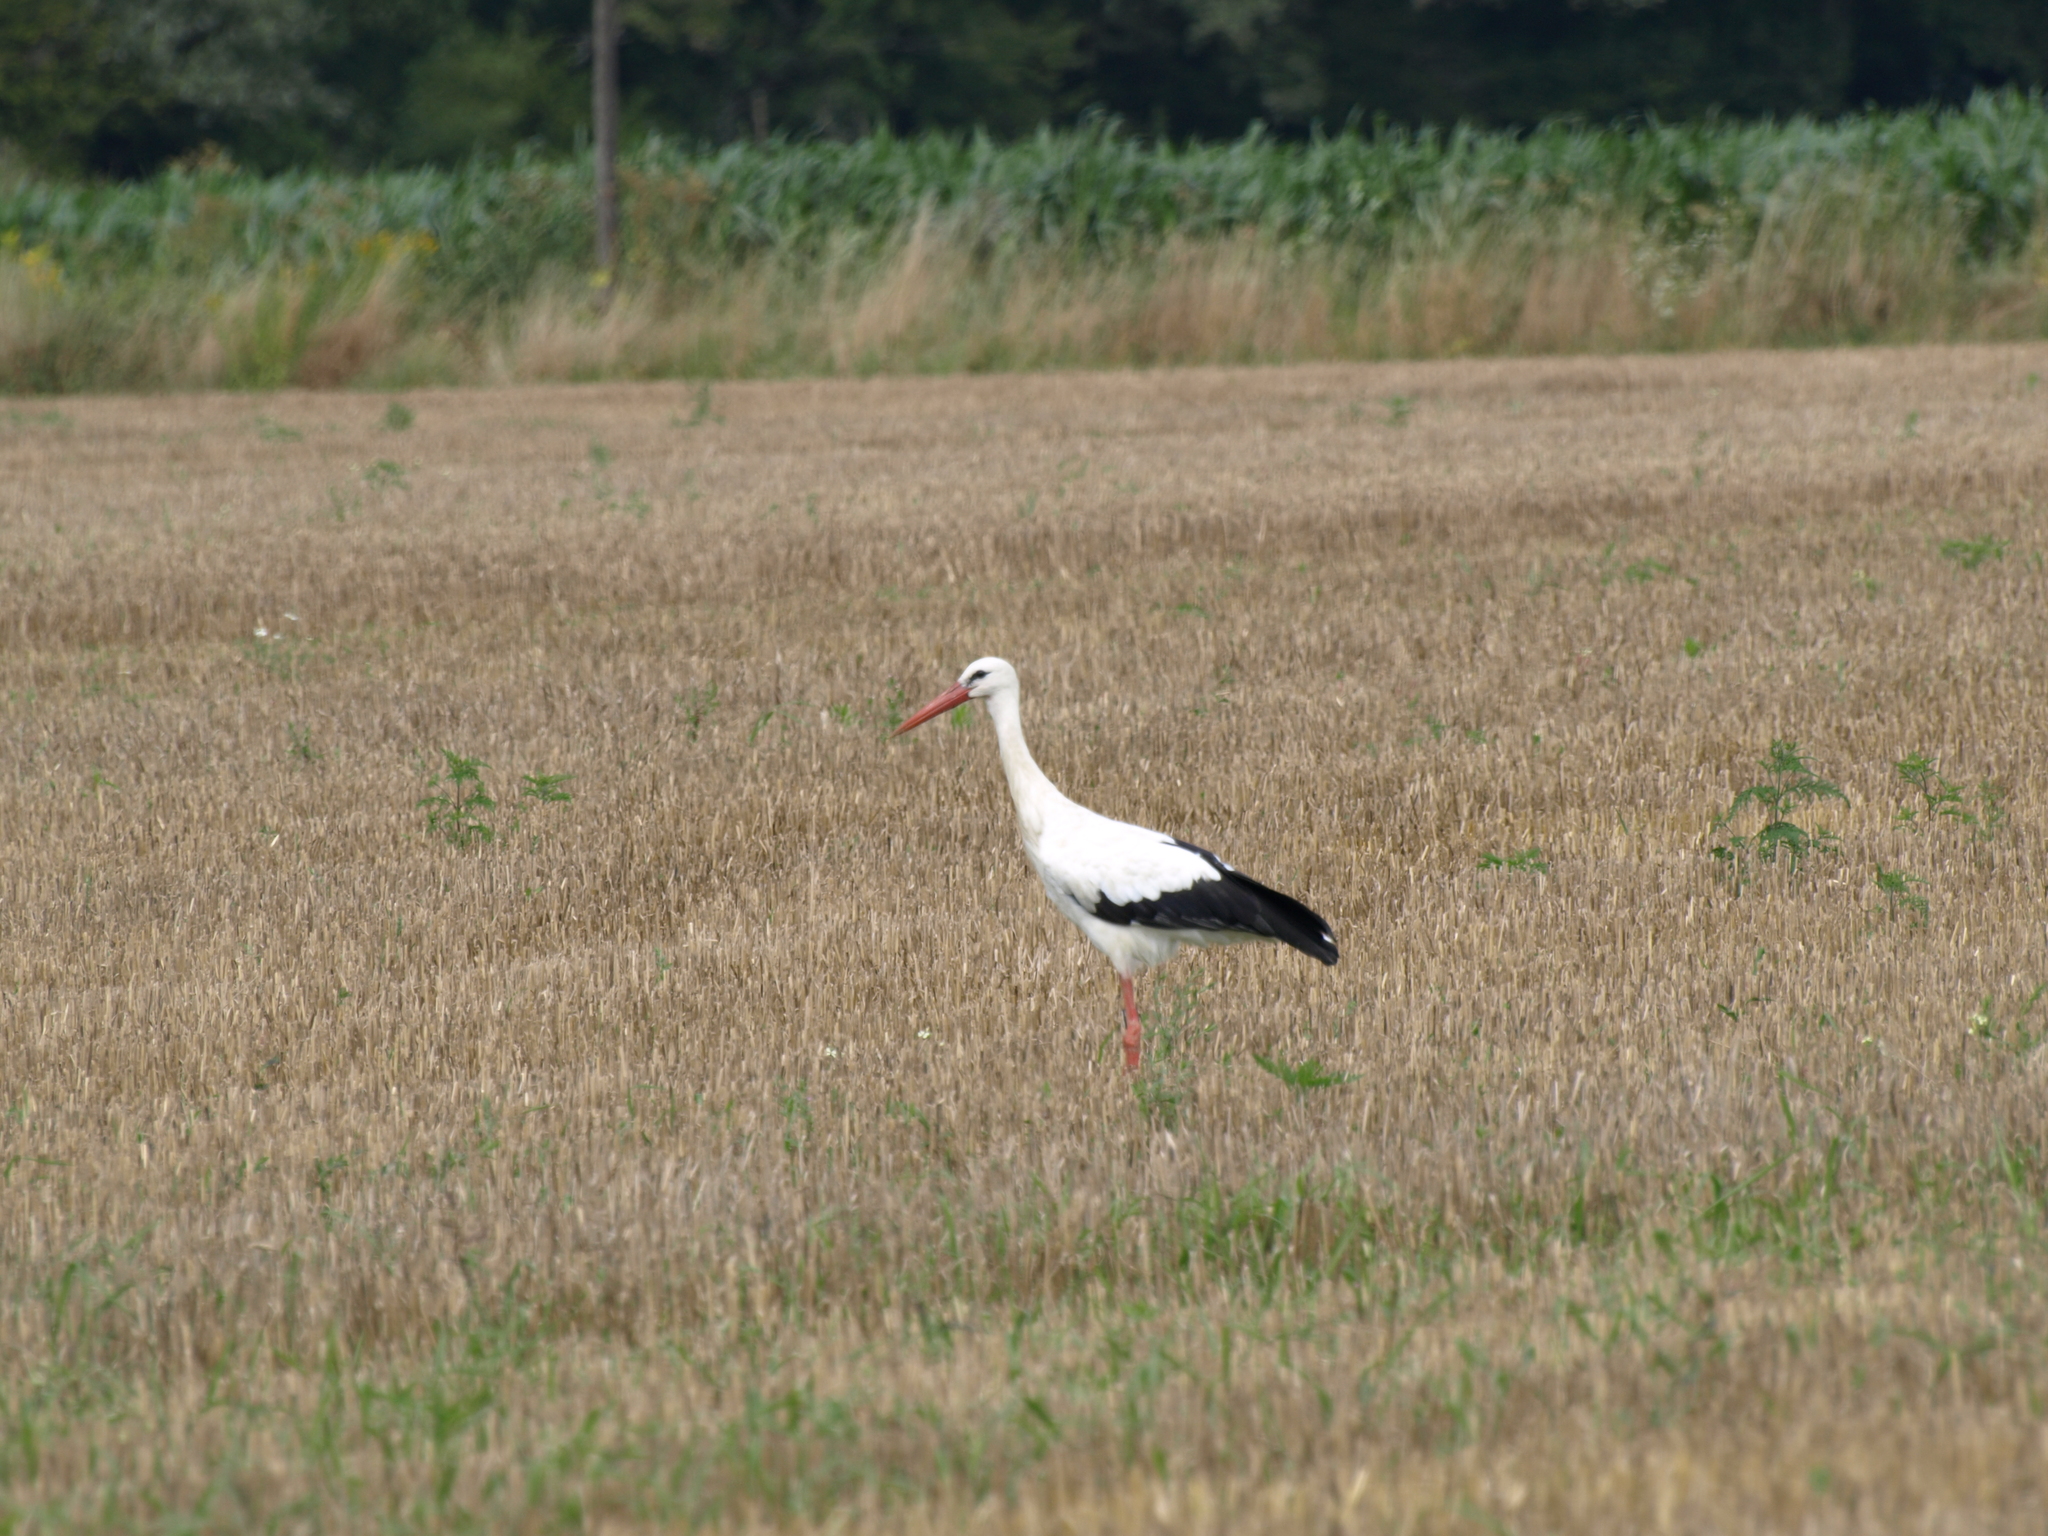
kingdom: Animalia
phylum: Chordata
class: Aves
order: Ciconiiformes
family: Ciconiidae
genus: Ciconia
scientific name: Ciconia ciconia
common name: White stork
